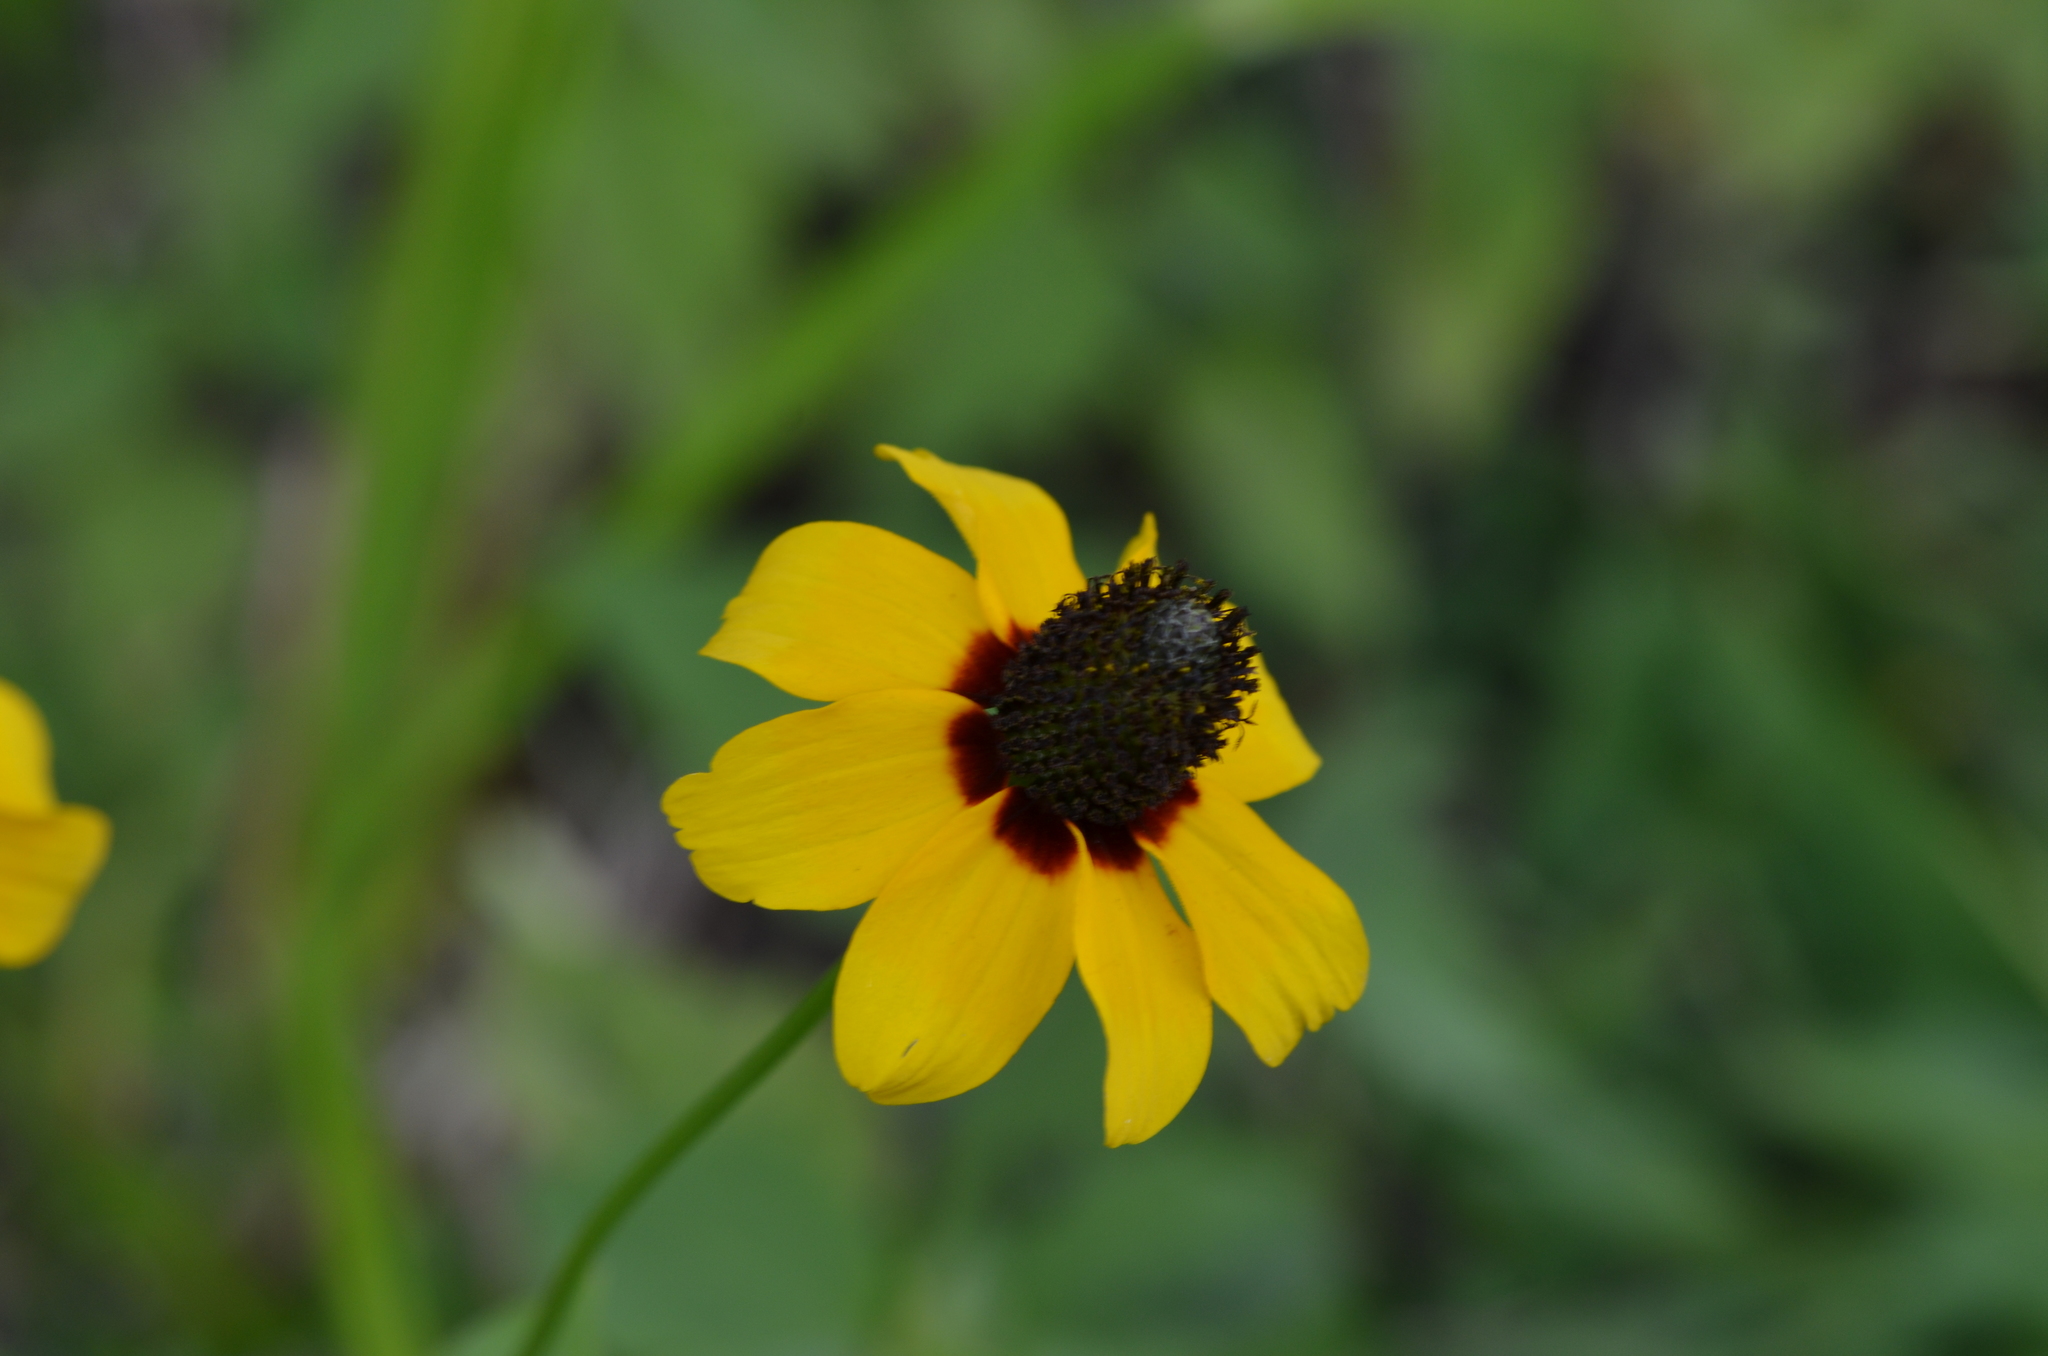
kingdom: Plantae
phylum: Tracheophyta
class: Magnoliopsida
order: Asterales
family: Asteraceae
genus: Rudbeckia
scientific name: Rudbeckia amplexicaulis
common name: Clasping-leaf coneflower
